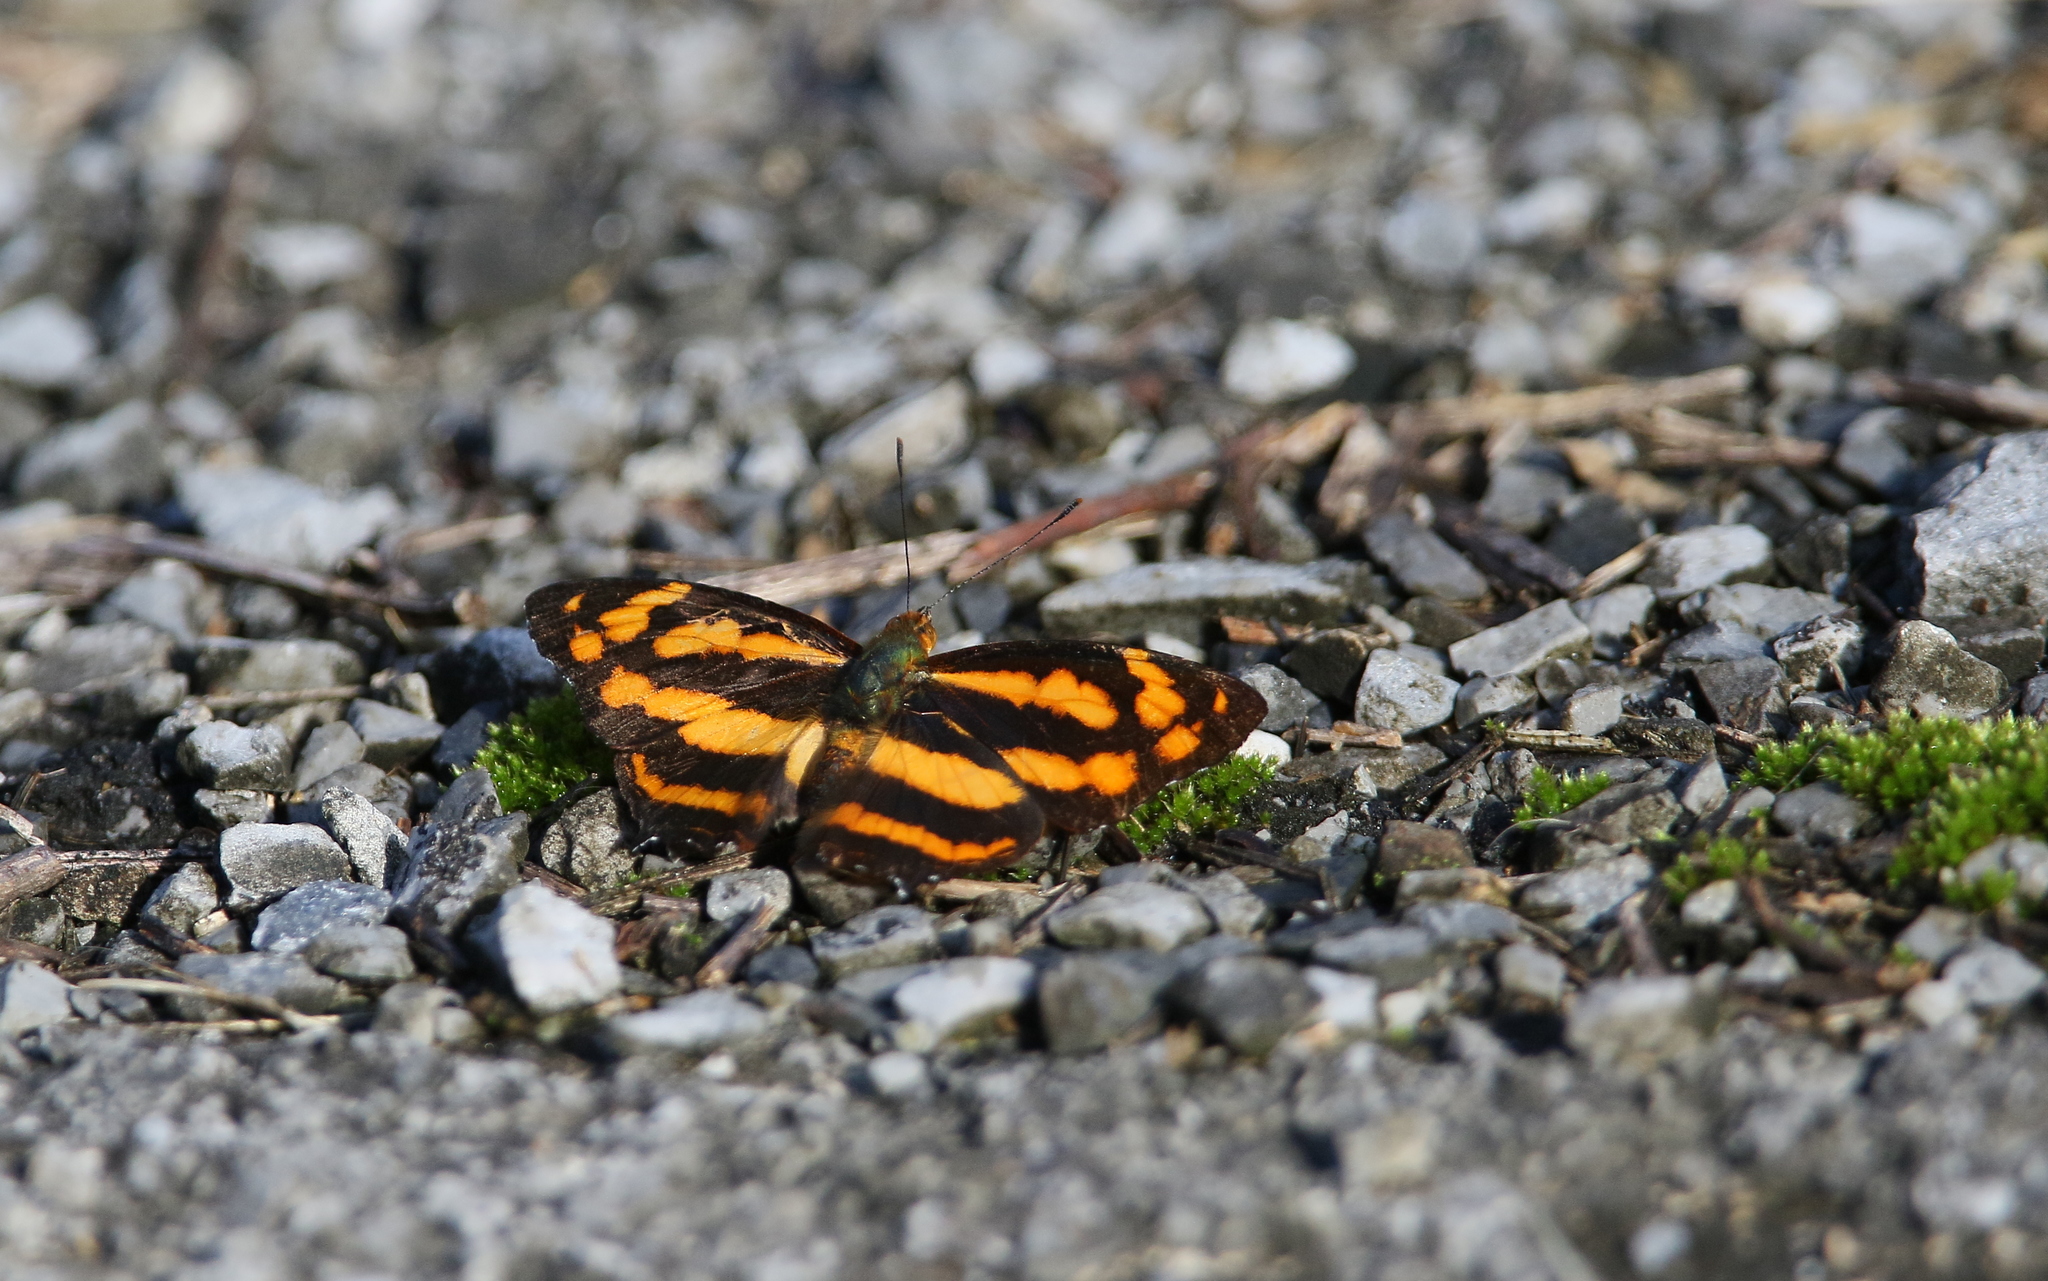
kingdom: Animalia
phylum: Arthropoda
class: Insecta
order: Lepidoptera
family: Nymphalidae
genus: Symbrenthia
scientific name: Symbrenthia hypselis
